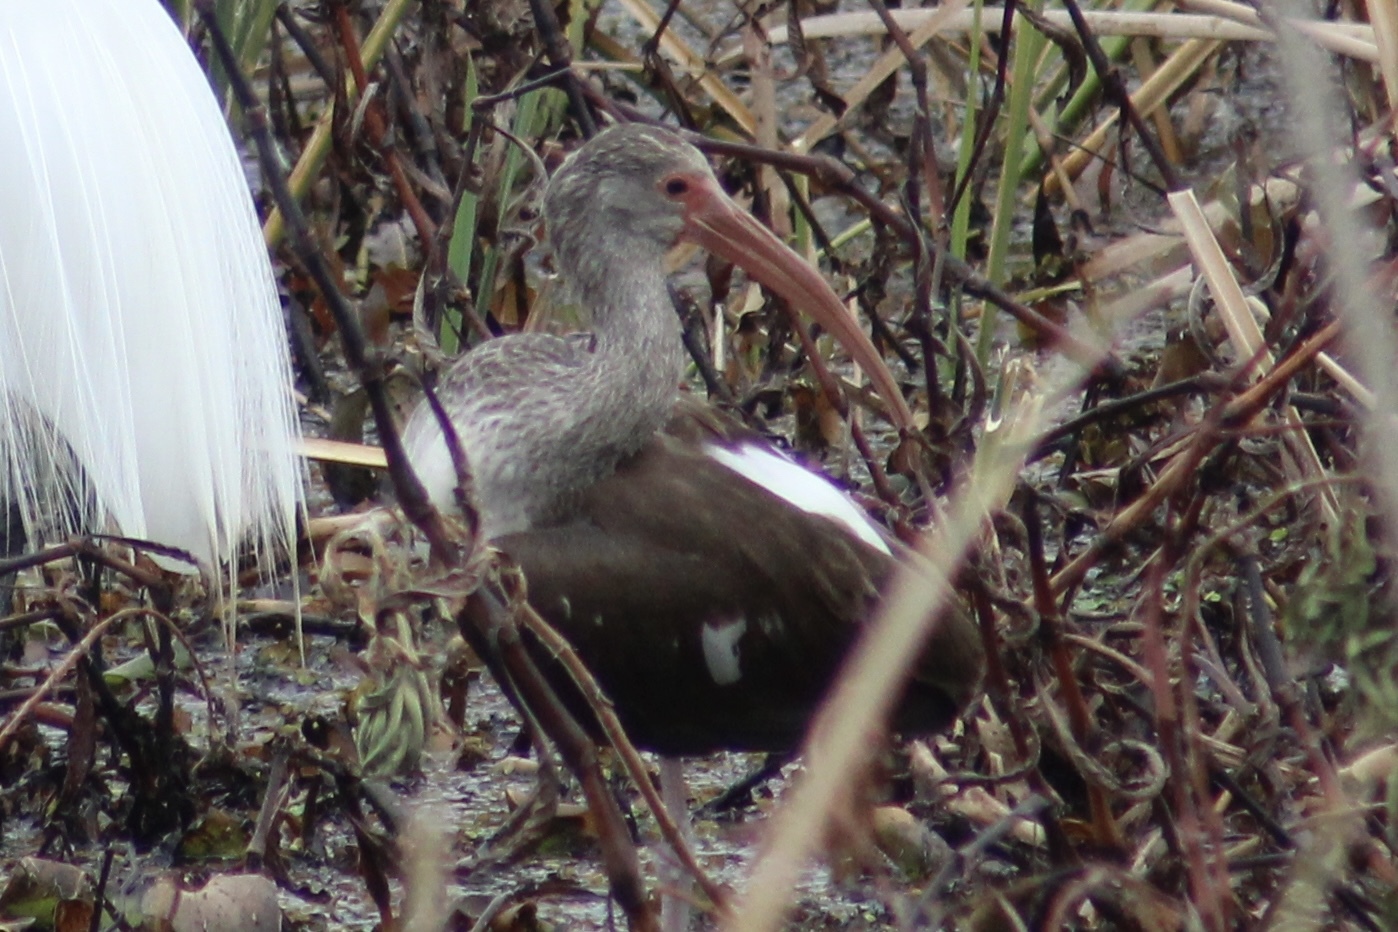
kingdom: Animalia
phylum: Chordata
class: Aves
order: Pelecaniformes
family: Threskiornithidae
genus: Eudocimus
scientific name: Eudocimus albus
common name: White ibis
